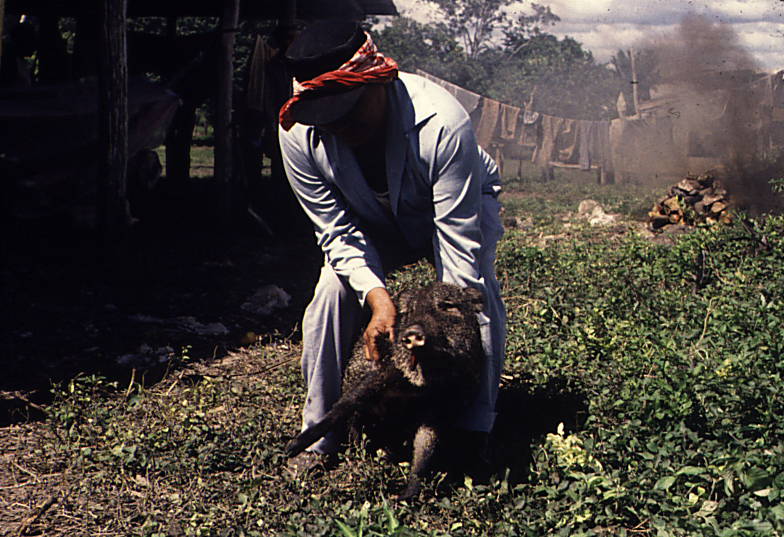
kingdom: Animalia
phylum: Chordata
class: Mammalia
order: Artiodactyla
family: Tayassuidae
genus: Pecari
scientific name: Pecari tajacu
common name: Collared peccary
